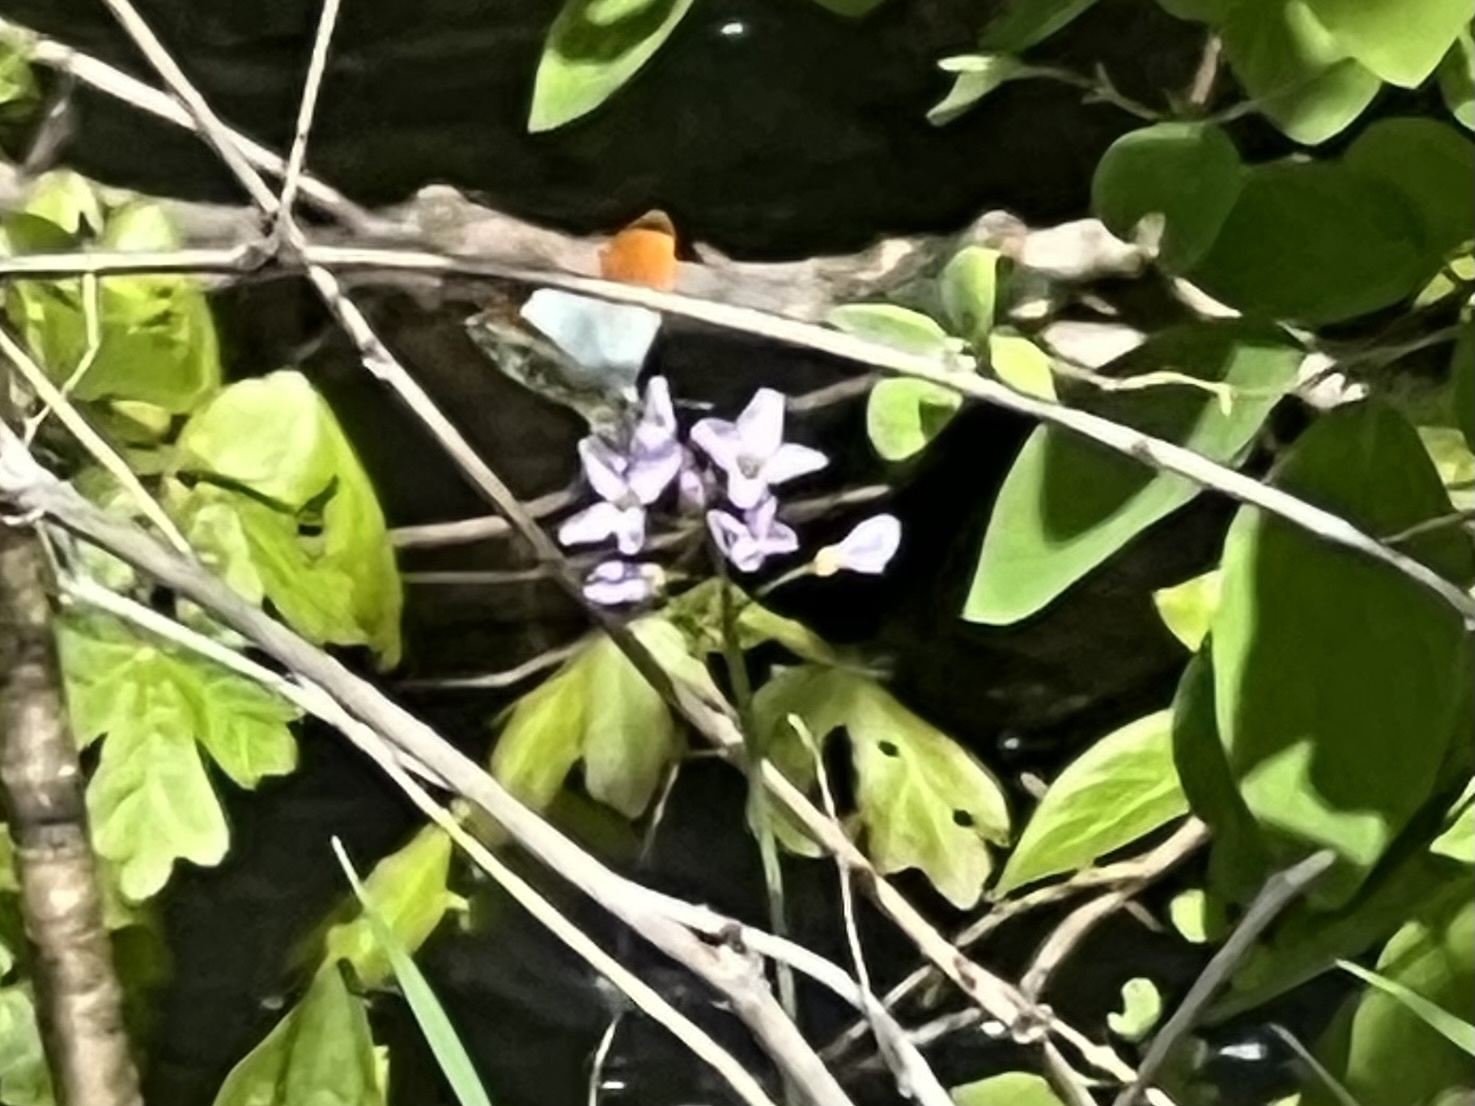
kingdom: Animalia
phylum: Arthropoda
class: Insecta
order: Lepidoptera
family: Pieridae
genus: Anthocharis
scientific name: Anthocharis cardamines
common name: Orange-tip
